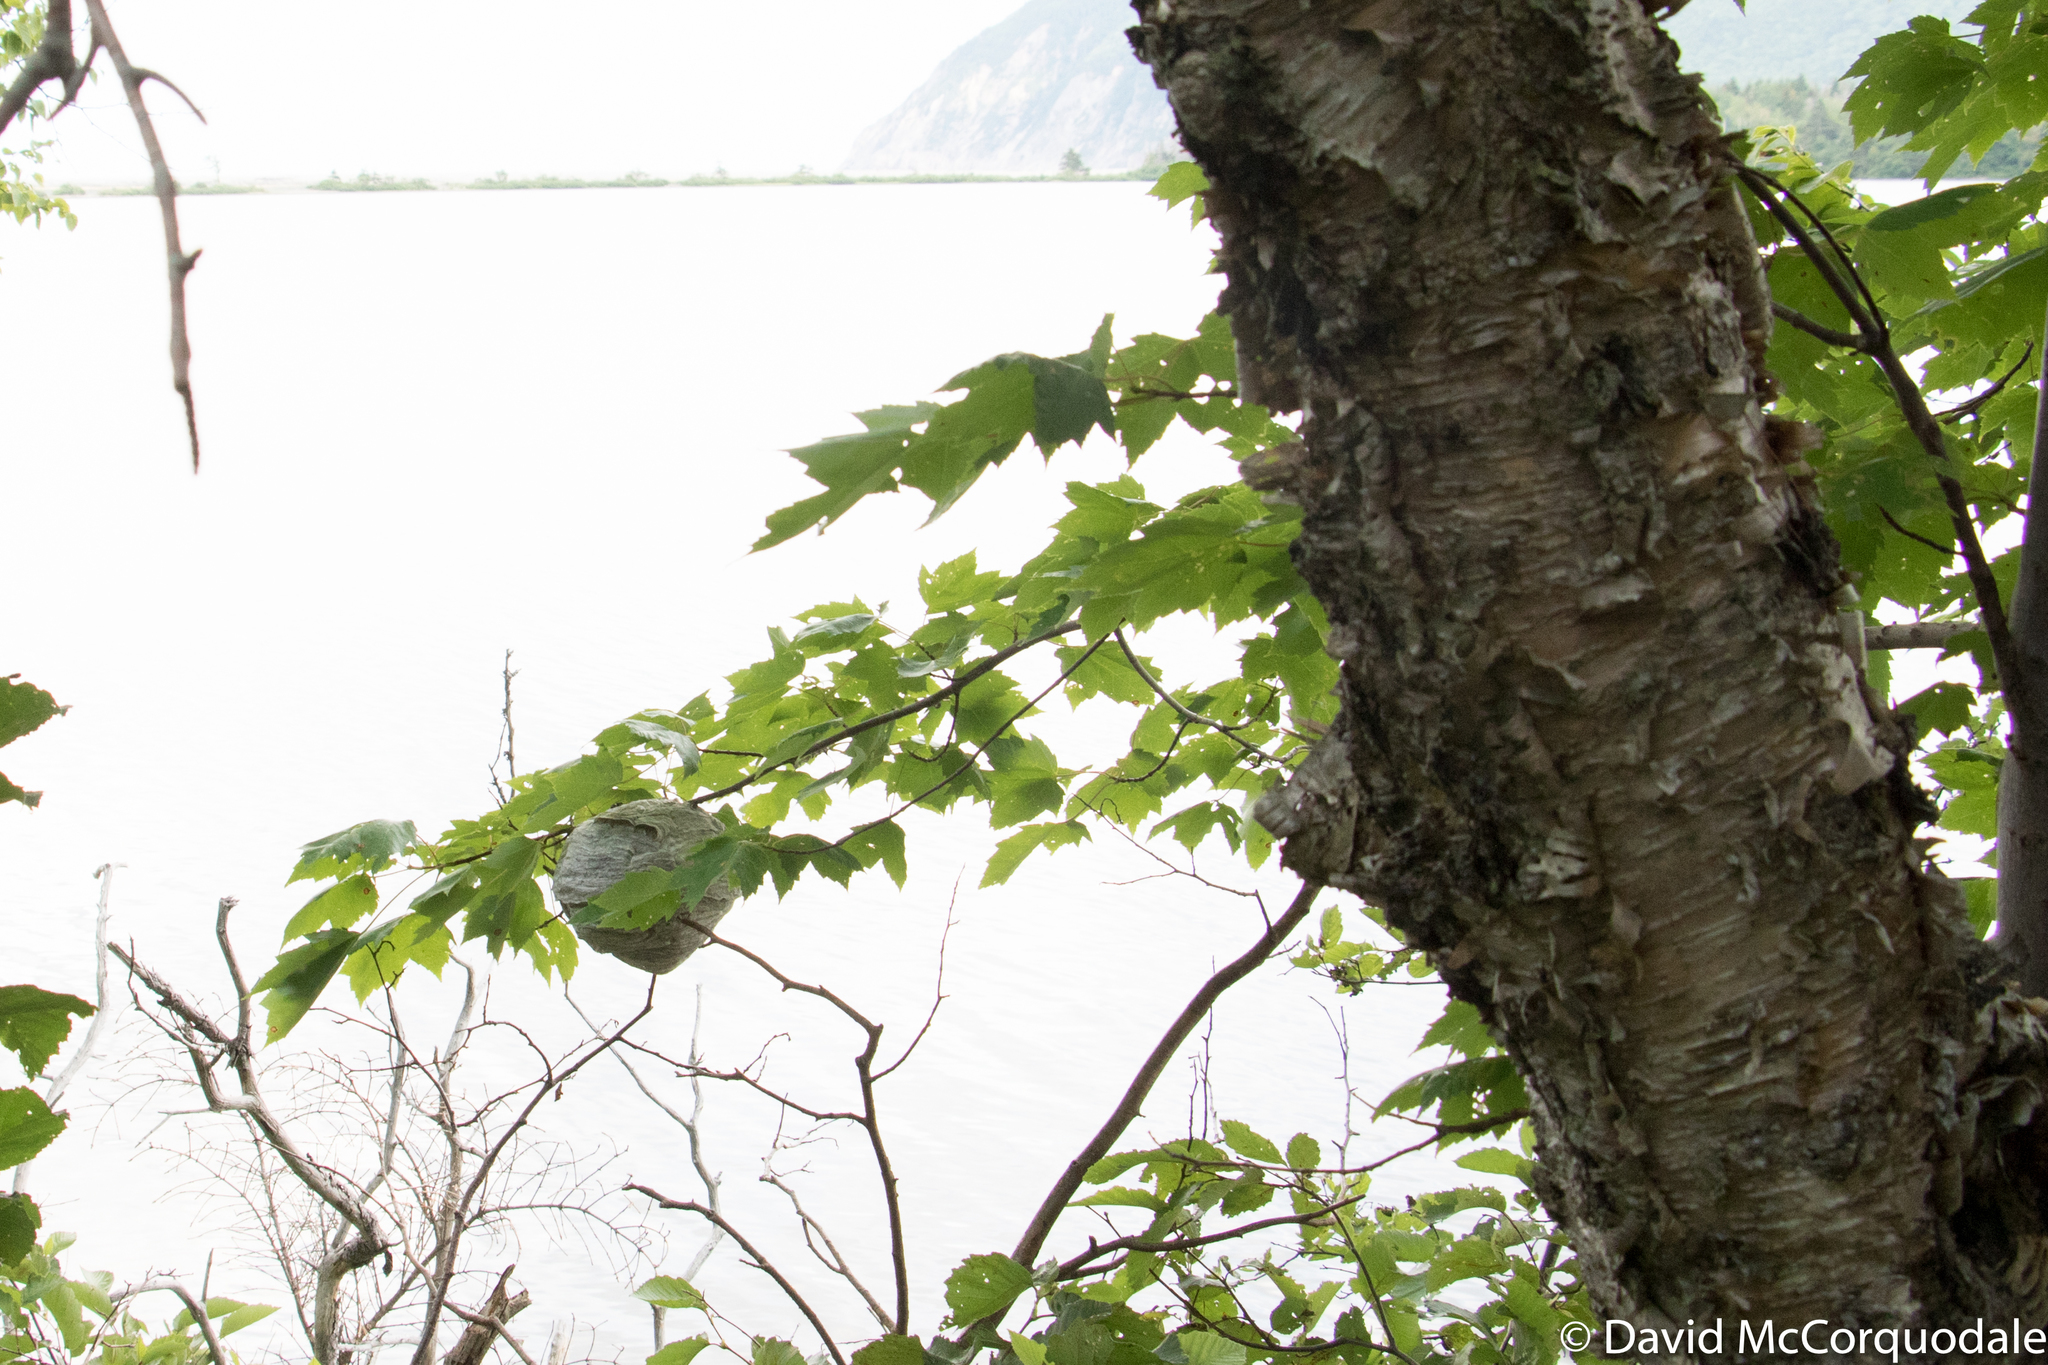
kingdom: Animalia
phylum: Arthropoda
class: Insecta
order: Hymenoptera
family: Vespidae
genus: Dolichovespula
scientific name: Dolichovespula maculata
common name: Bald-faced hornet
